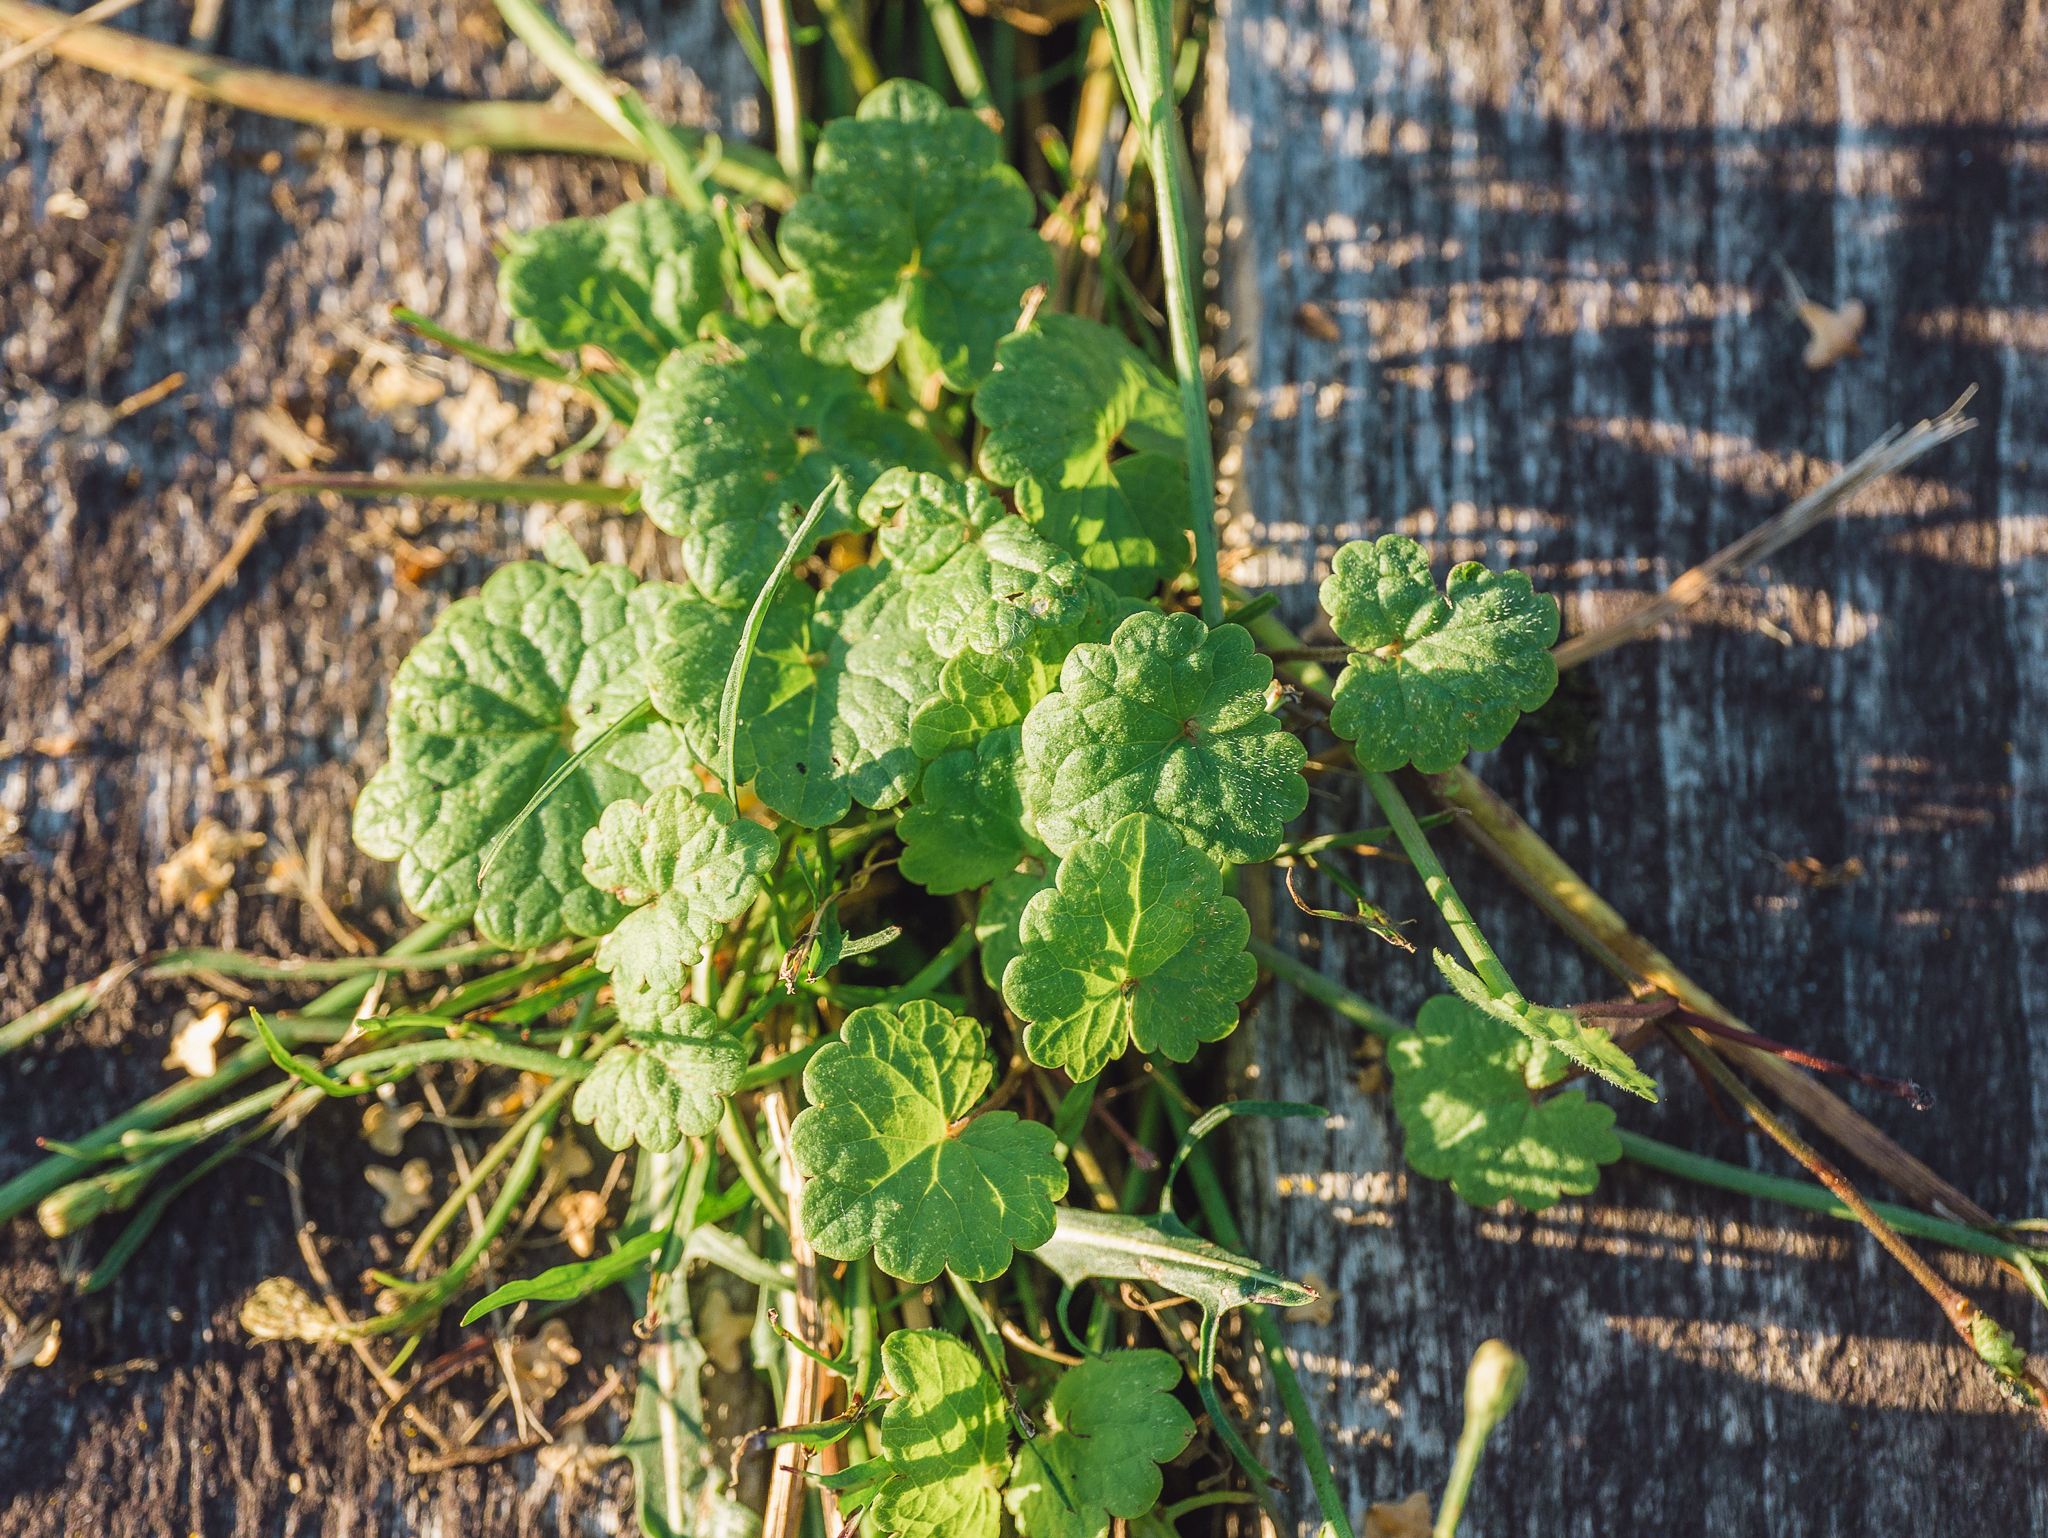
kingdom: Plantae
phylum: Tracheophyta
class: Magnoliopsida
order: Lamiales
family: Lamiaceae
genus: Glechoma
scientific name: Glechoma hederacea
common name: Ground ivy
